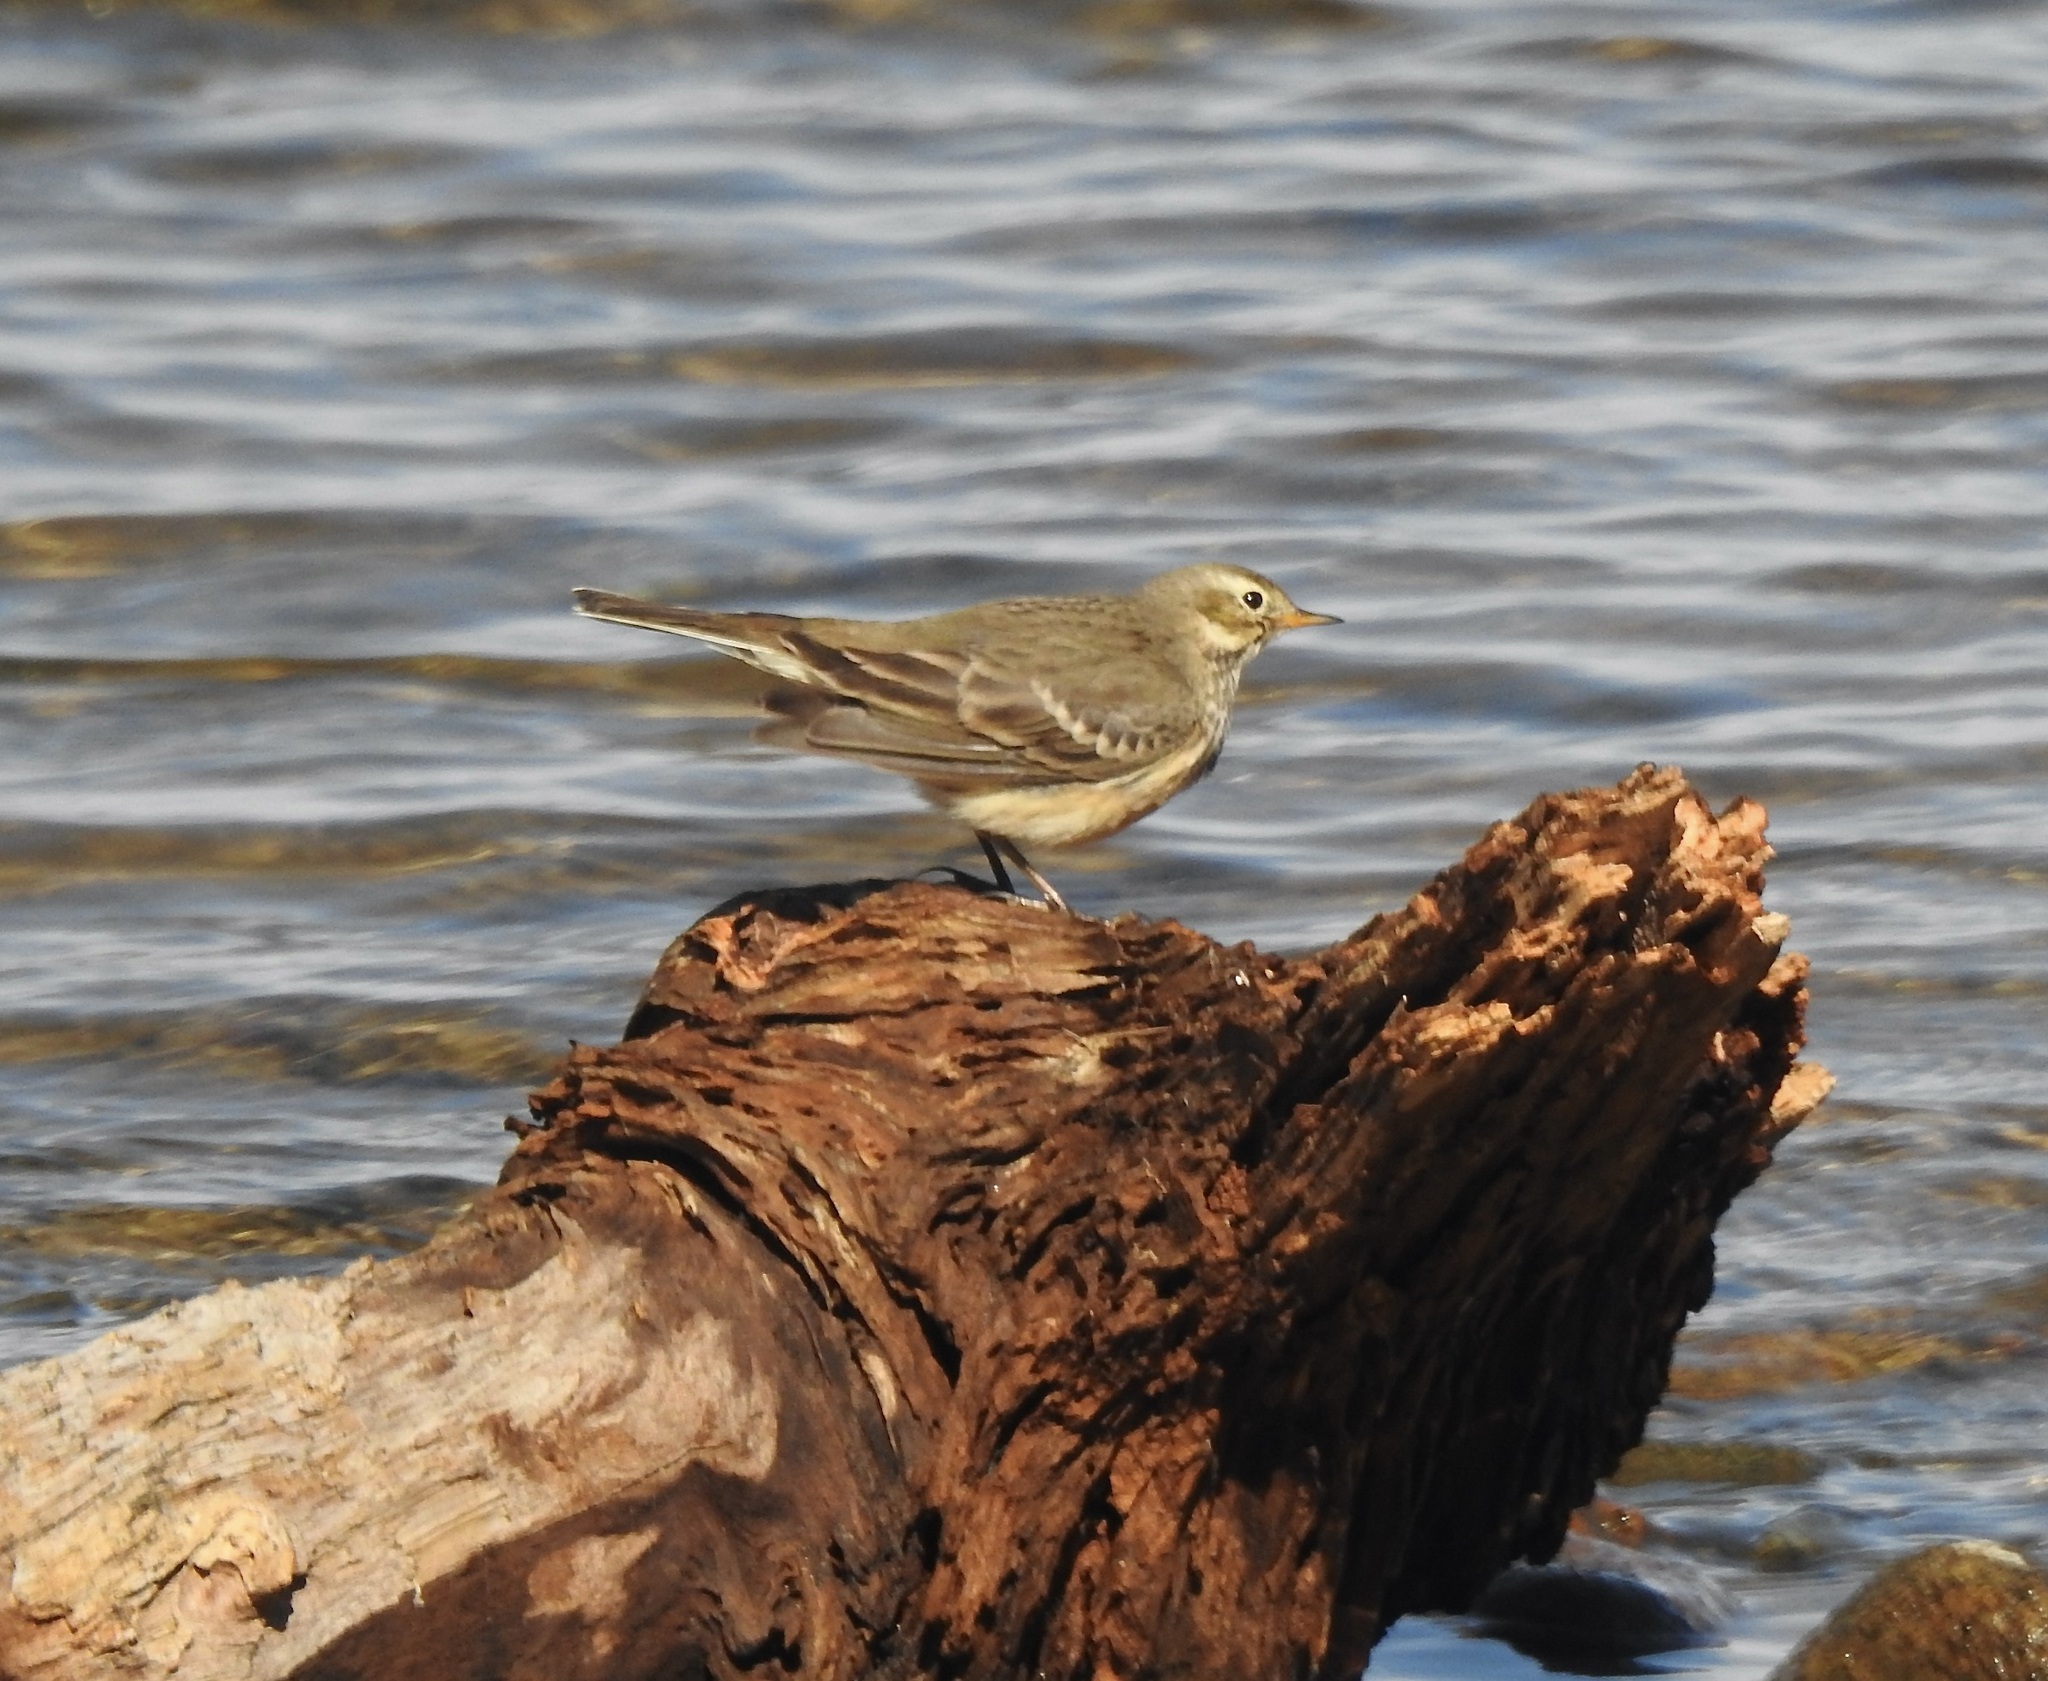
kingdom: Animalia
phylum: Chordata
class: Aves
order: Passeriformes
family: Motacillidae
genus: Anthus
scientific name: Anthus rubescens
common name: Buff-bellied pipit
